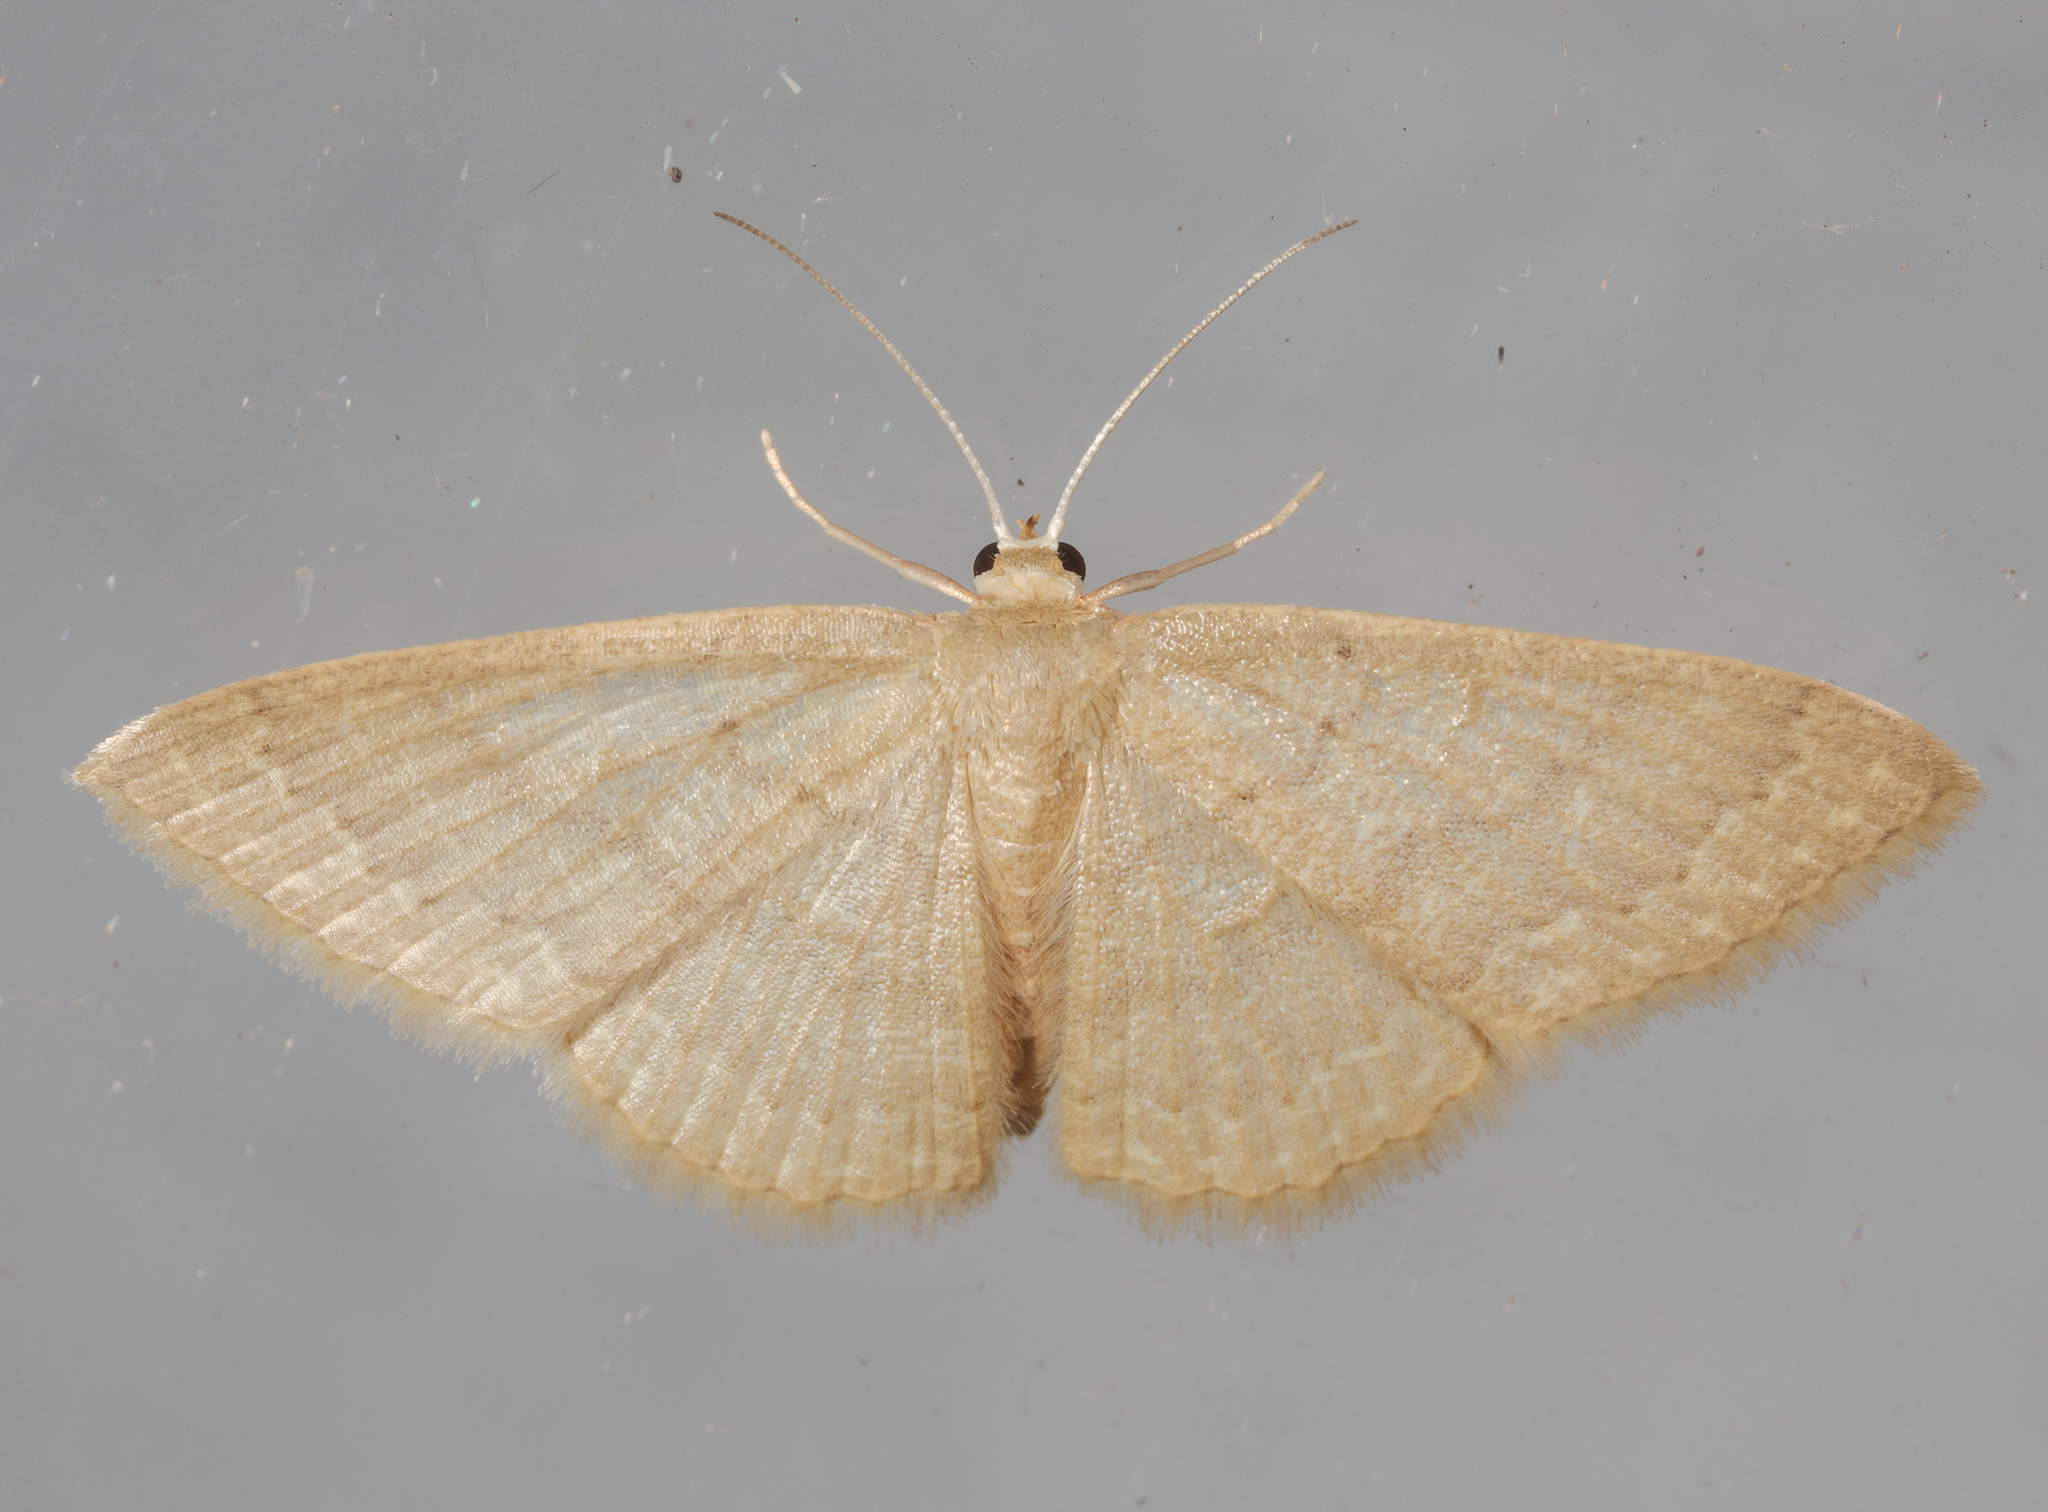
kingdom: Animalia
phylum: Arthropoda
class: Insecta
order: Lepidoptera
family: Geometridae
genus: Pleuroprucha
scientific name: Pleuroprucha insulsaria
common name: Common tan wave
